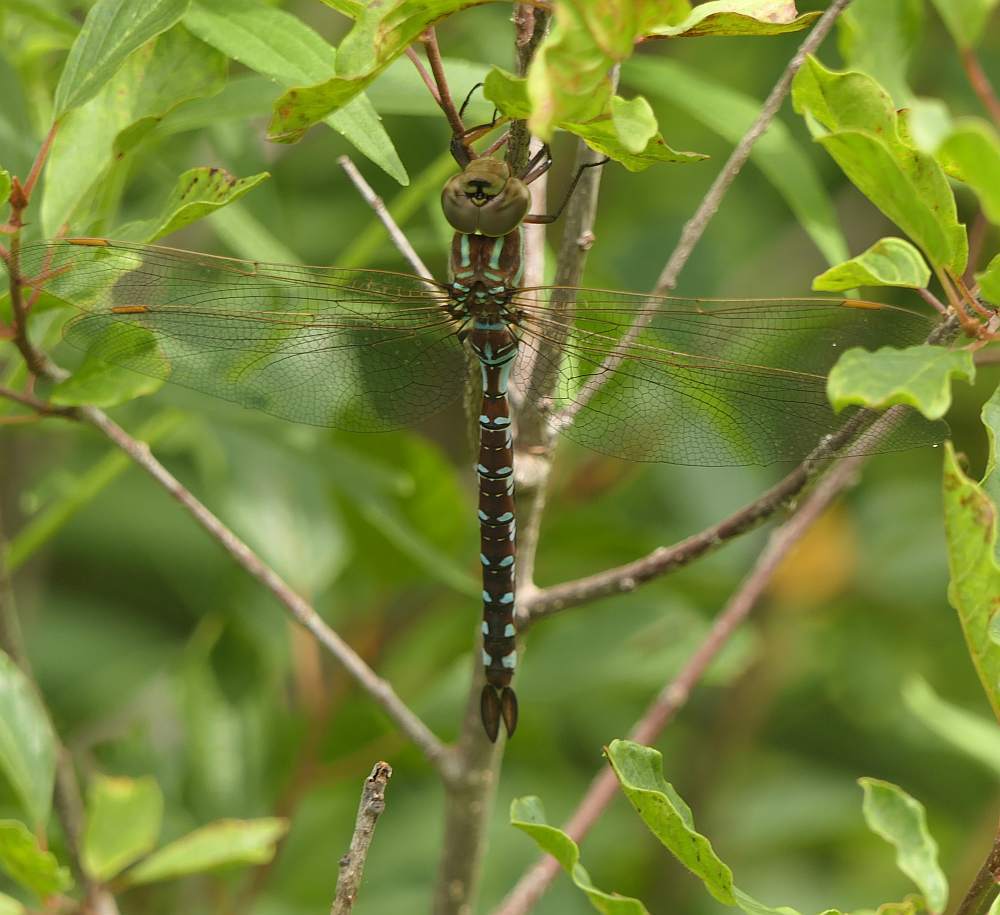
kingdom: Animalia
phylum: Arthropoda
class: Insecta
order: Odonata
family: Aeshnidae
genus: Aeshna
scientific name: Aeshna constricta
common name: Lance-tipped darner
